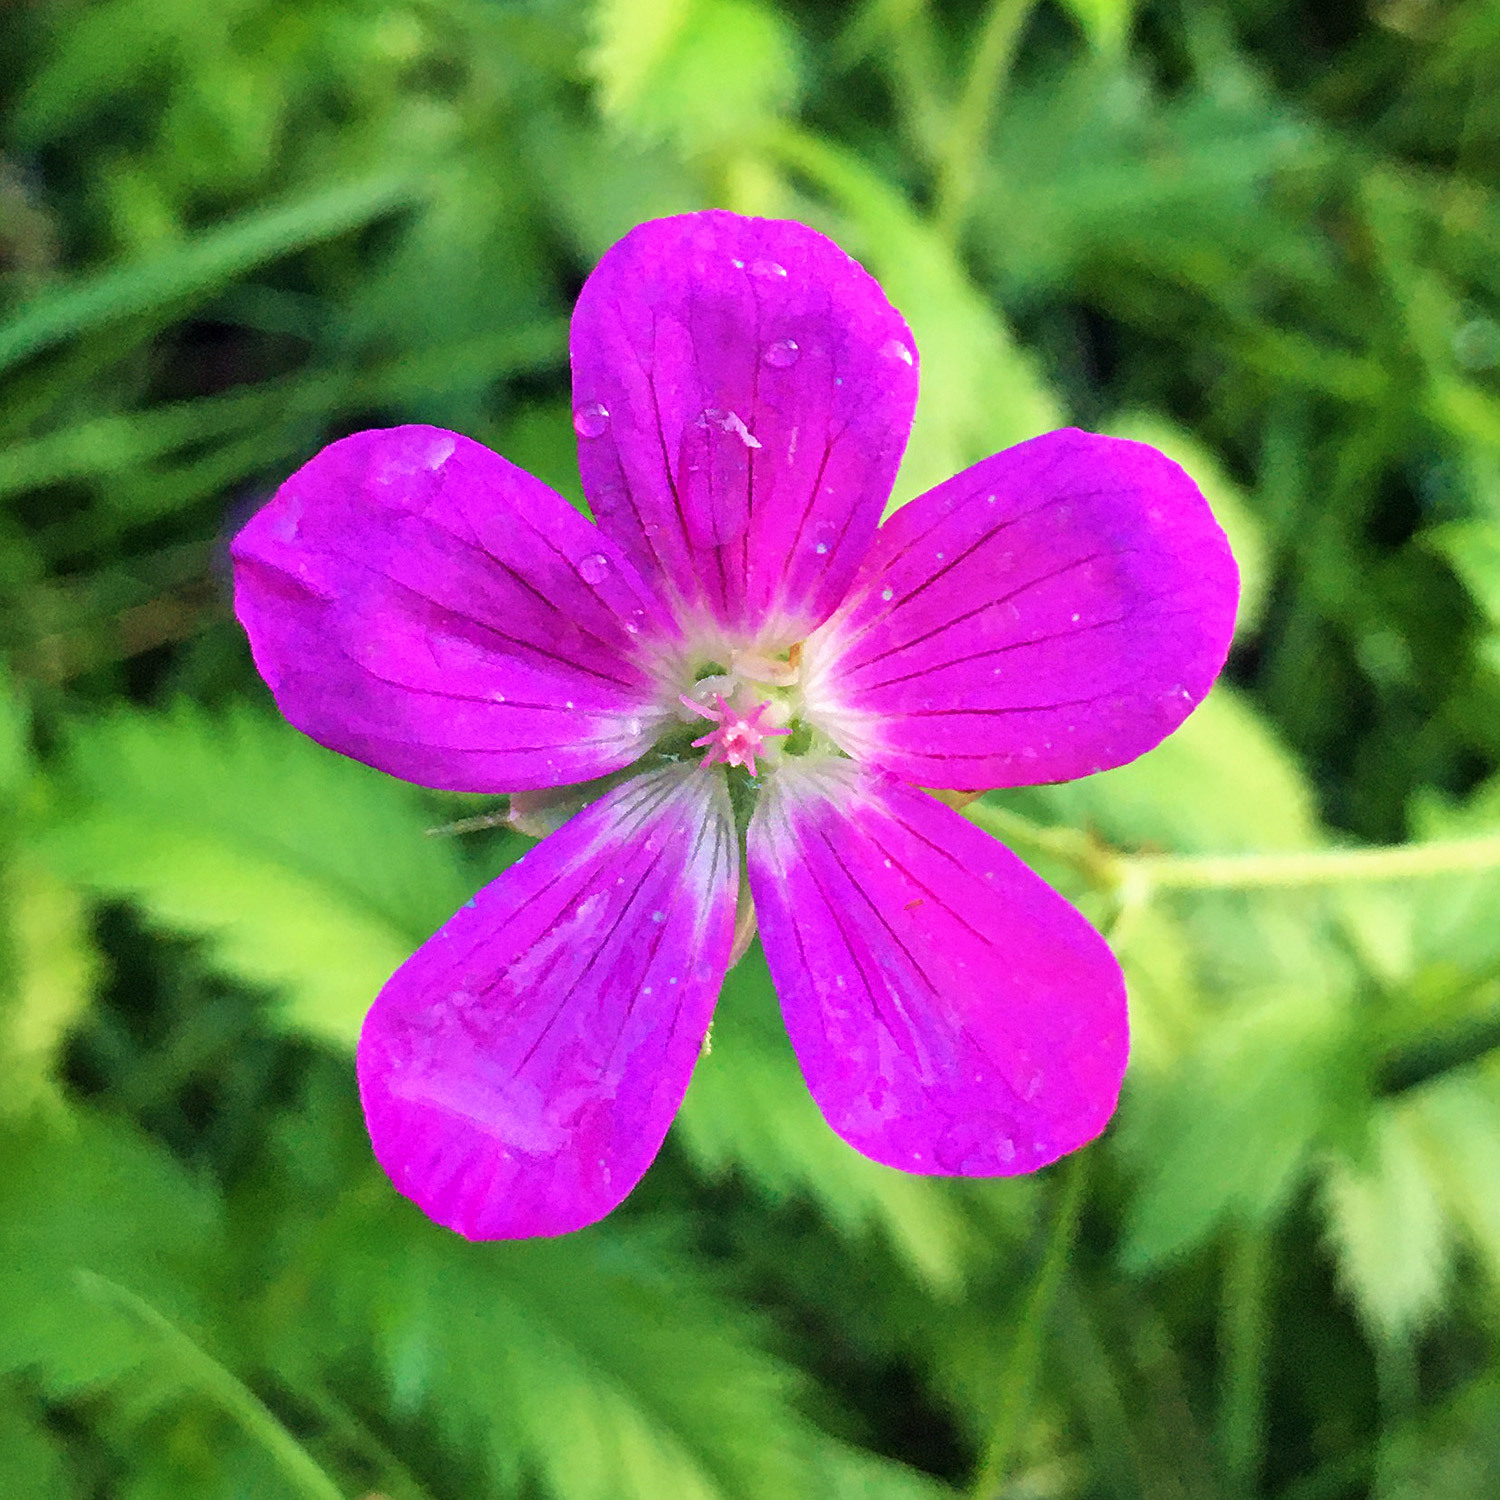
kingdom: Plantae
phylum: Tracheophyta
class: Magnoliopsida
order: Geraniales
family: Geraniaceae
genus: Geranium
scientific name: Geranium palustre
